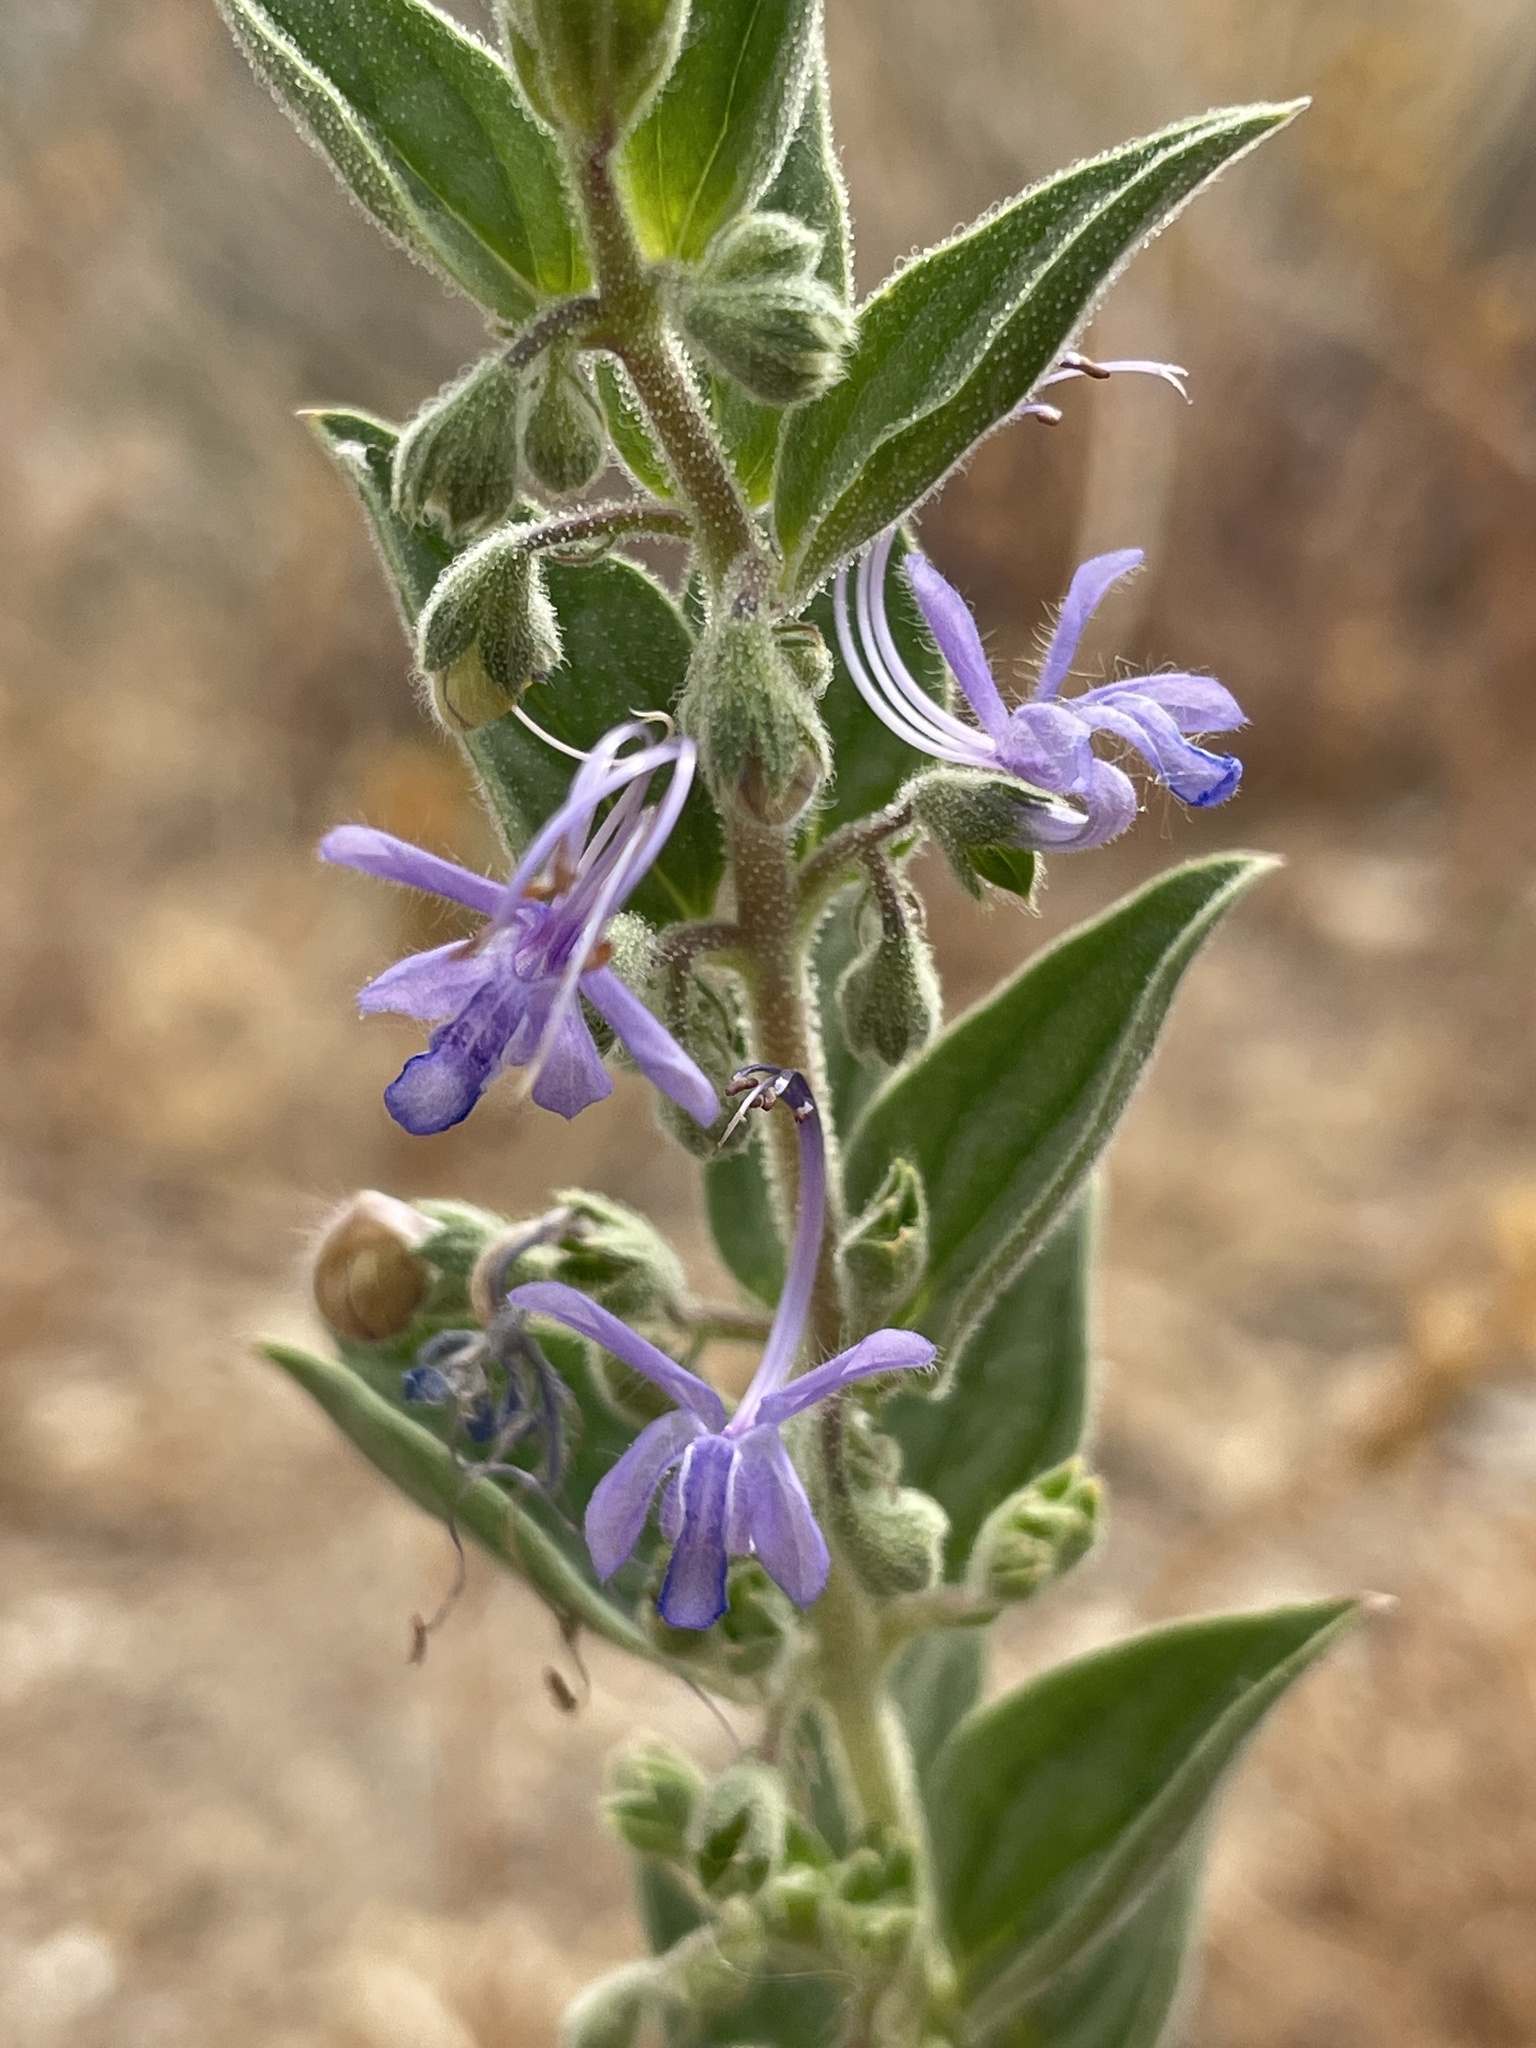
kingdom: Plantae
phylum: Tracheophyta
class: Magnoliopsida
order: Lamiales
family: Lamiaceae
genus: Trichostema
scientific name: Trichostema lanceolatum
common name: Vinegar-weed
